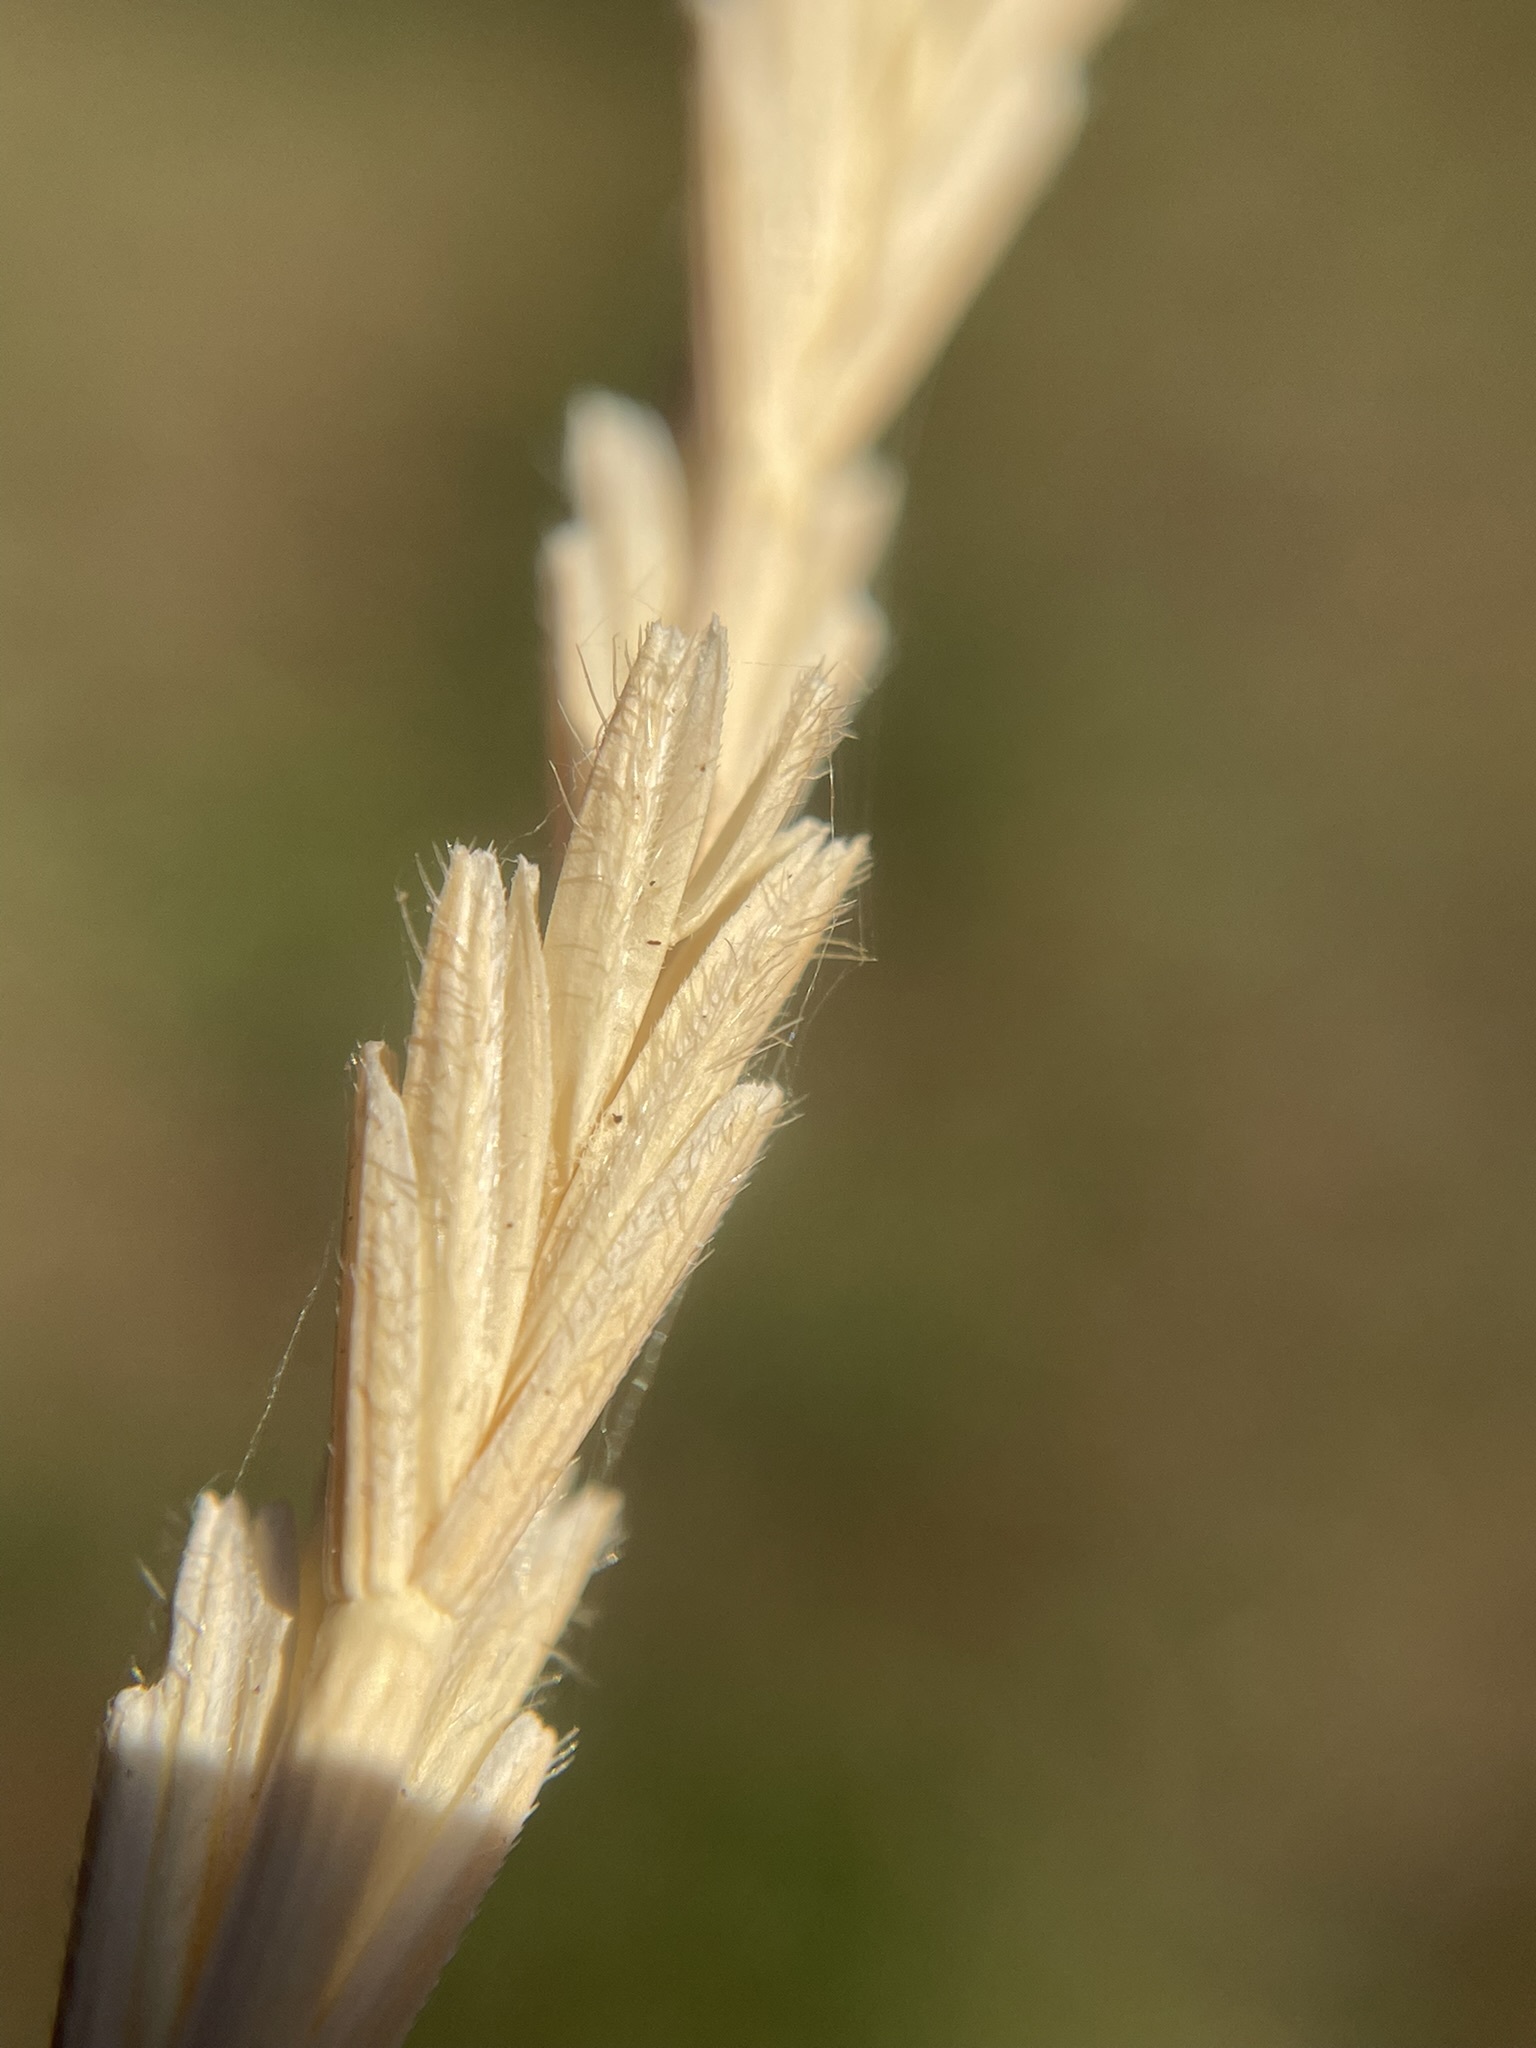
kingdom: Plantae
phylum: Tracheophyta
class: Liliopsida
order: Poales
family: Poaceae
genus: Thinopyrum
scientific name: Thinopyrum intermedium
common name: Intermediate wheatgrass
